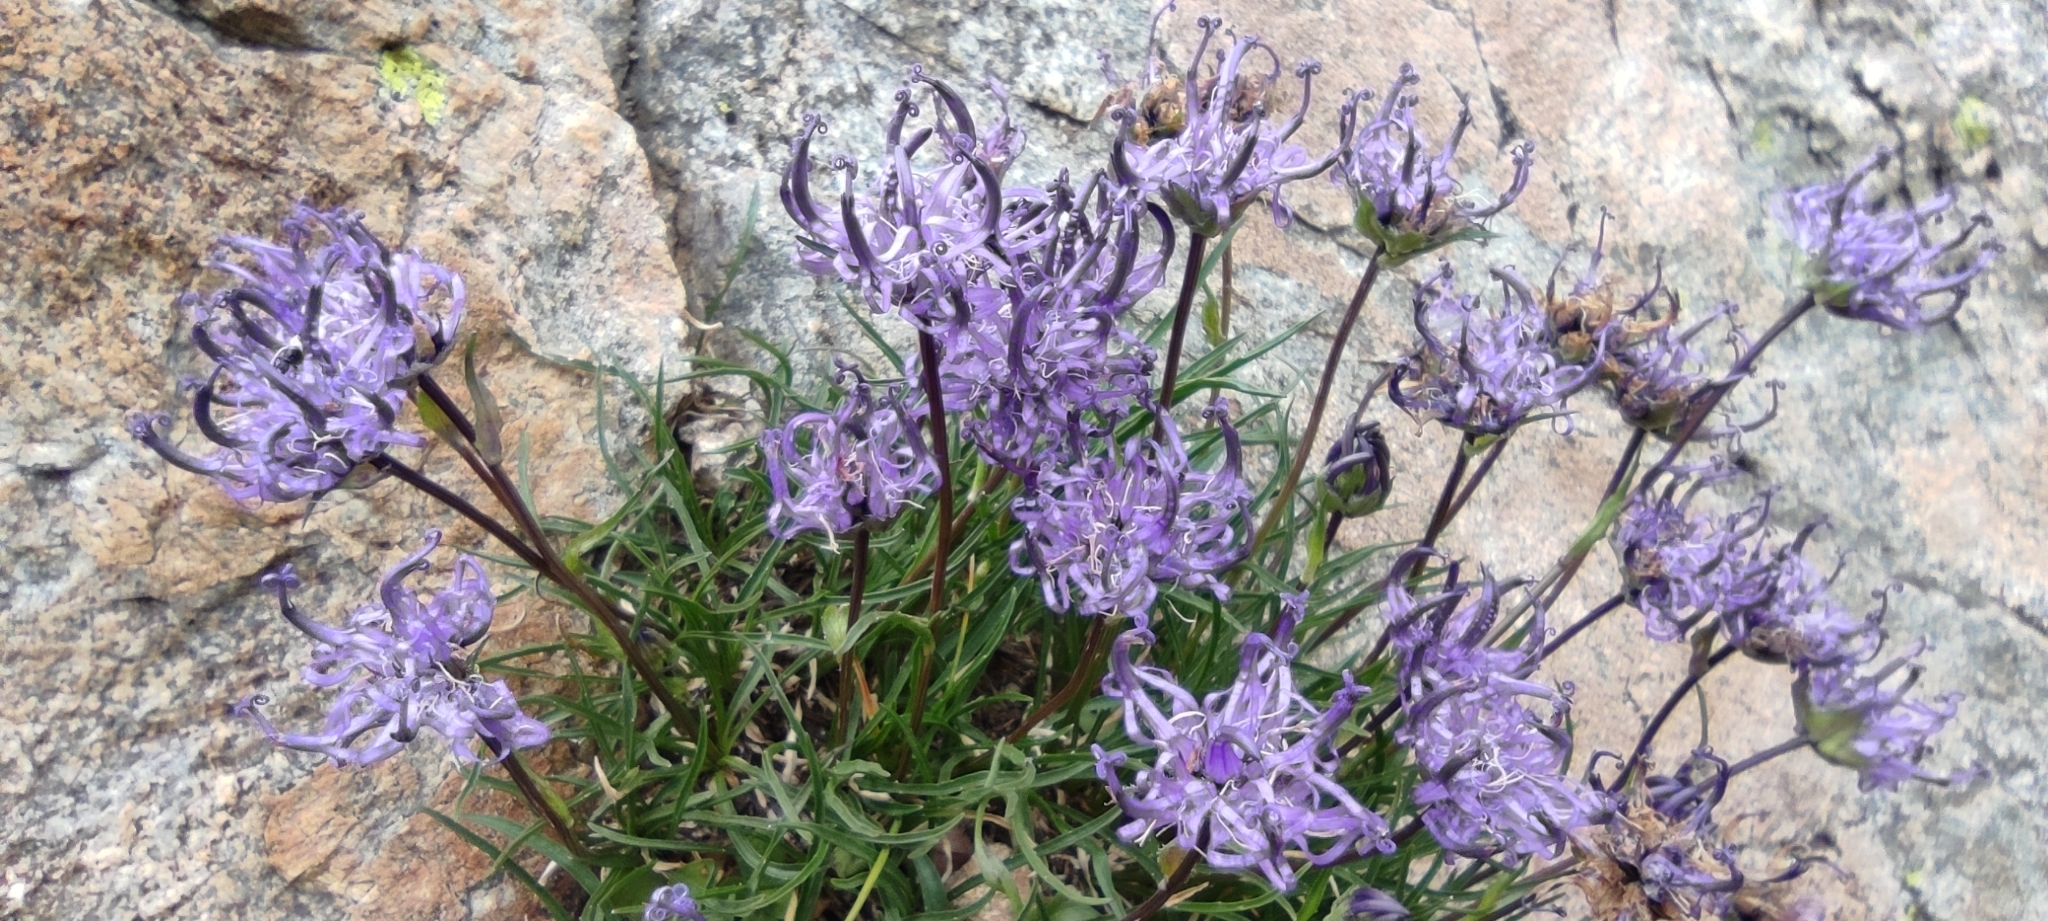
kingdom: Plantae
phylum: Tracheophyta
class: Magnoliopsida
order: Asterales
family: Campanulaceae
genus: Phyteuma
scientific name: Phyteuma hemisphaericum
